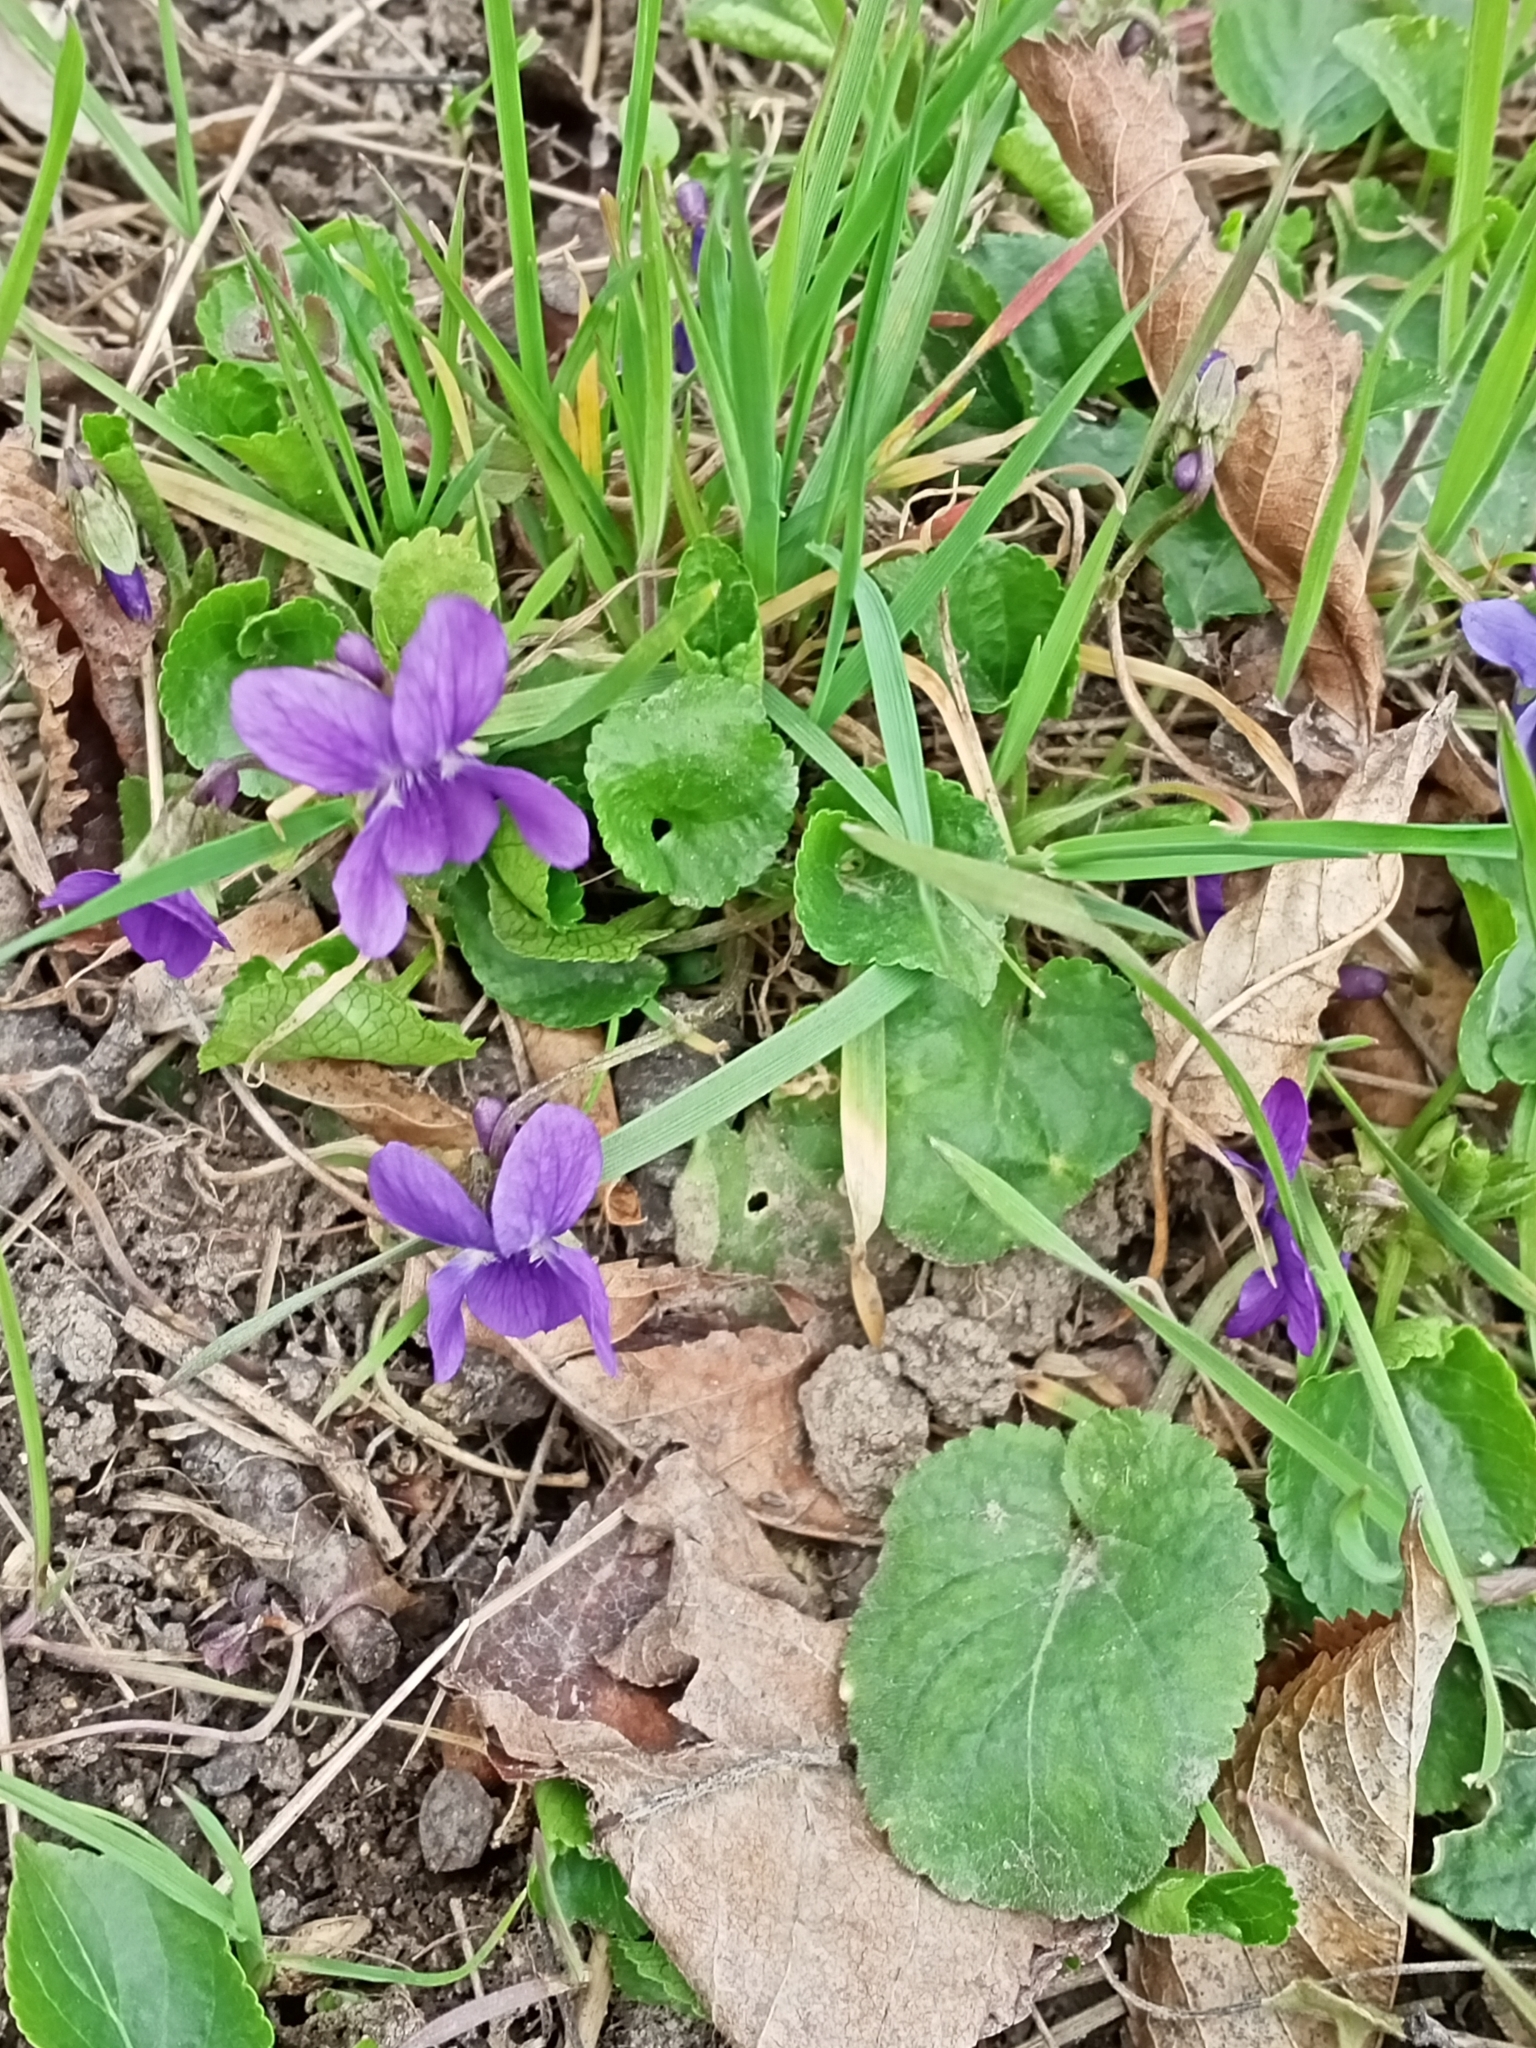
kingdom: Plantae
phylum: Tracheophyta
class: Magnoliopsida
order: Malpighiales
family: Violaceae
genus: Viola
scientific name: Viola odorata
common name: Sweet violet
